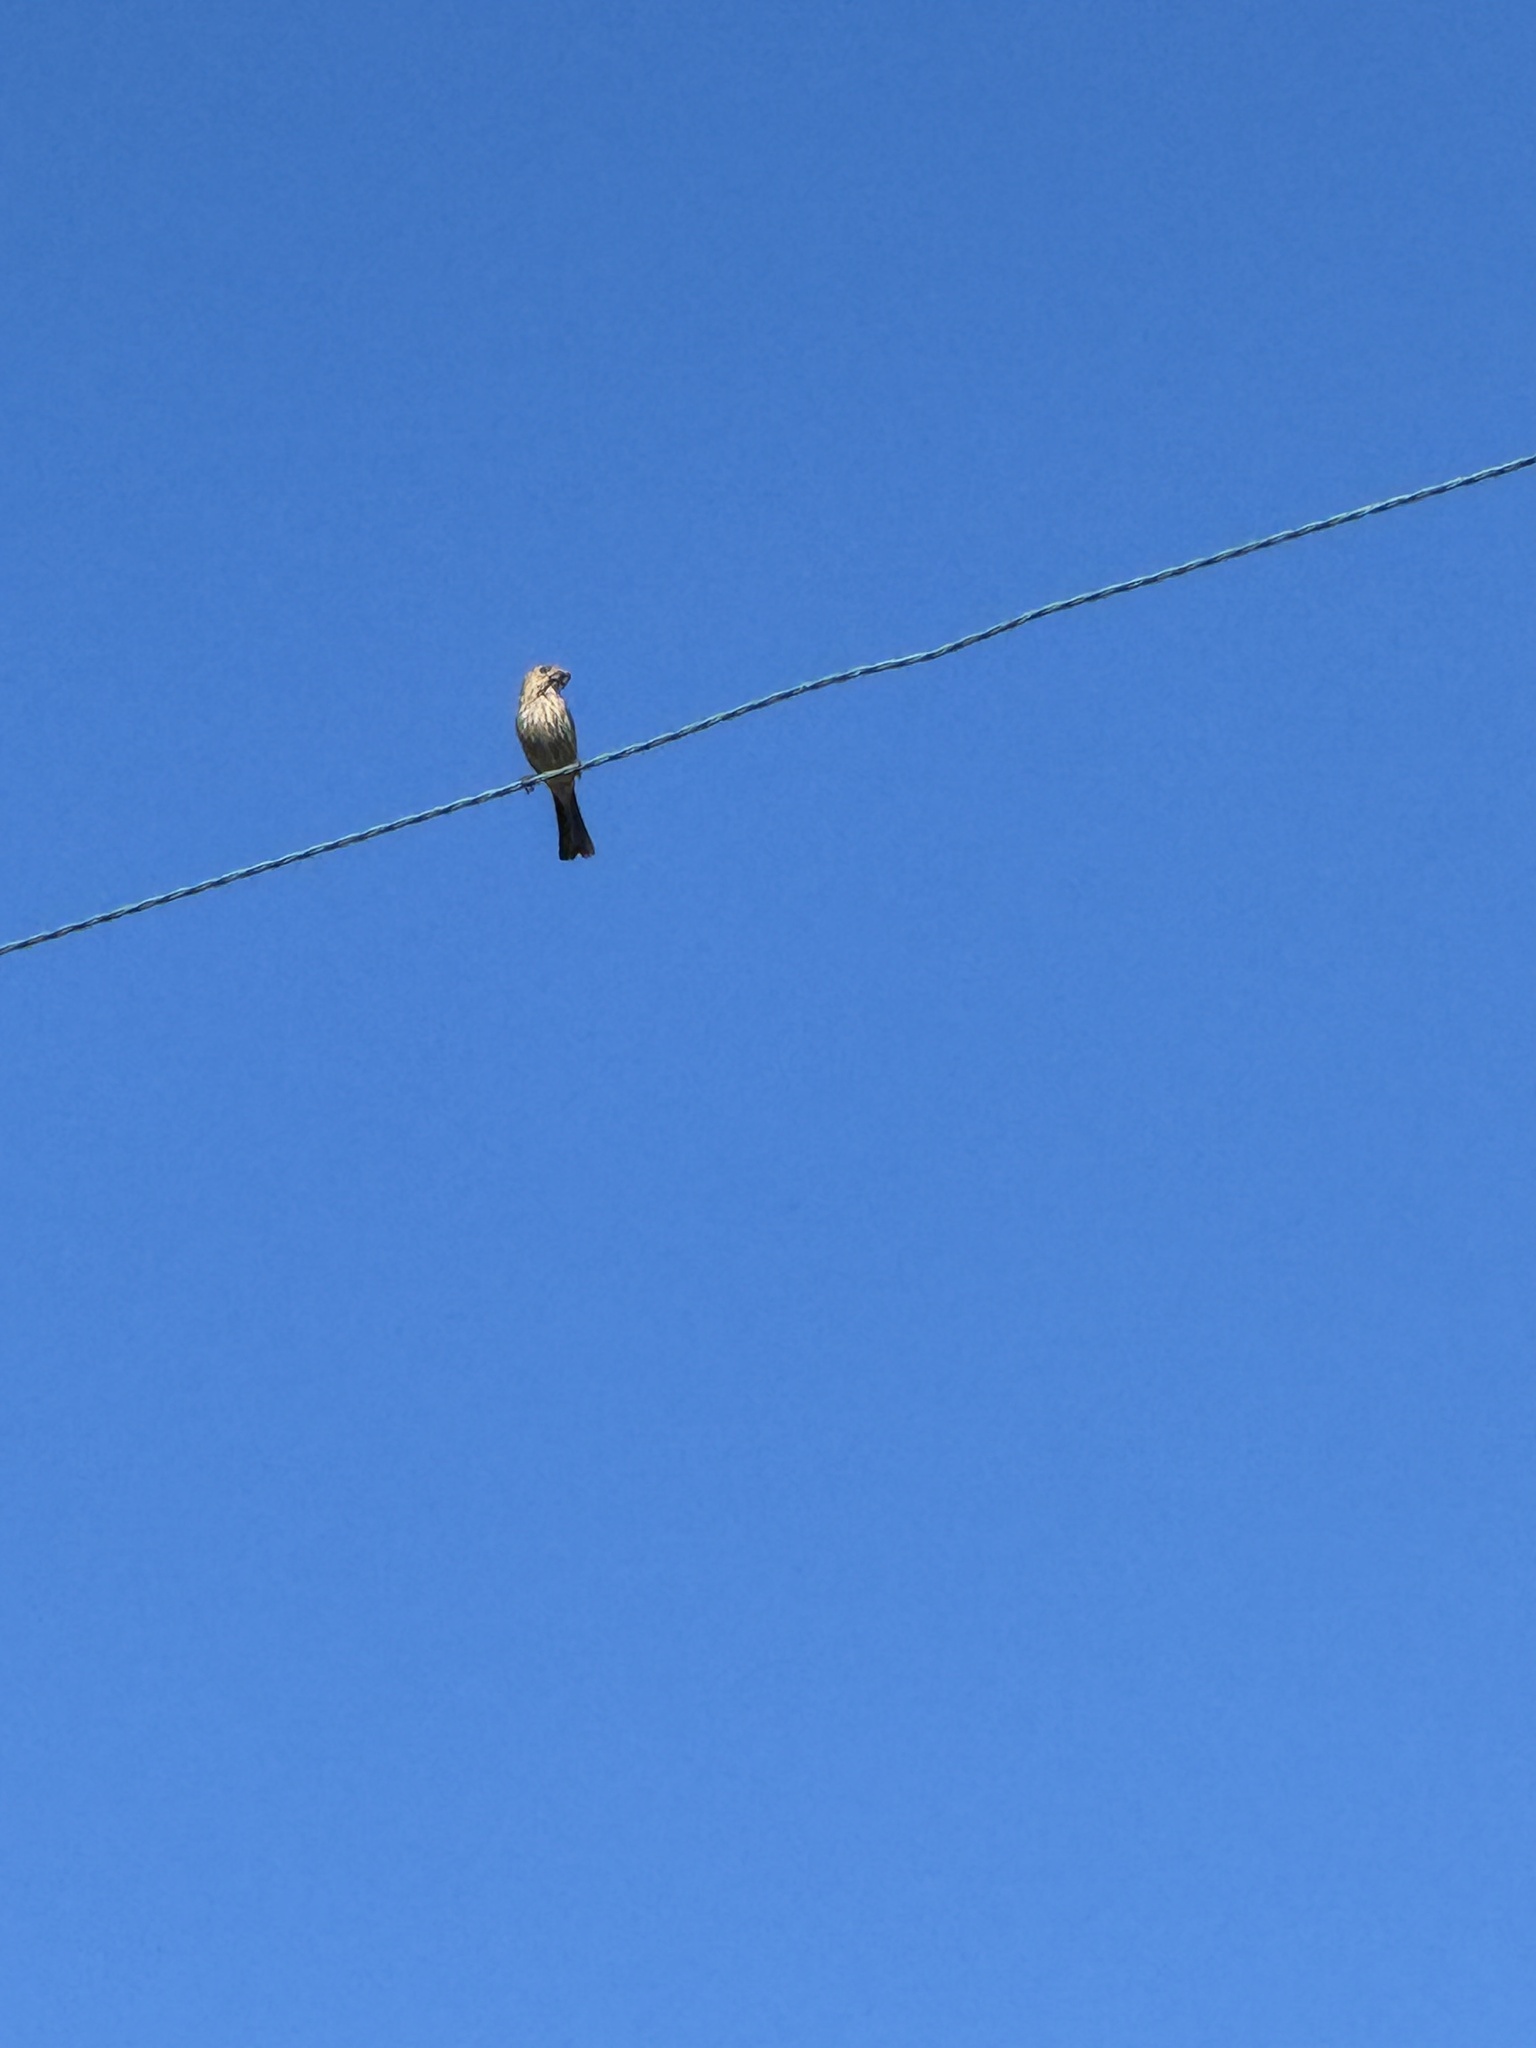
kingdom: Animalia
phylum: Chordata
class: Aves
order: Passeriformes
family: Fringillidae
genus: Haemorhous
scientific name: Haemorhous mexicanus
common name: House finch
